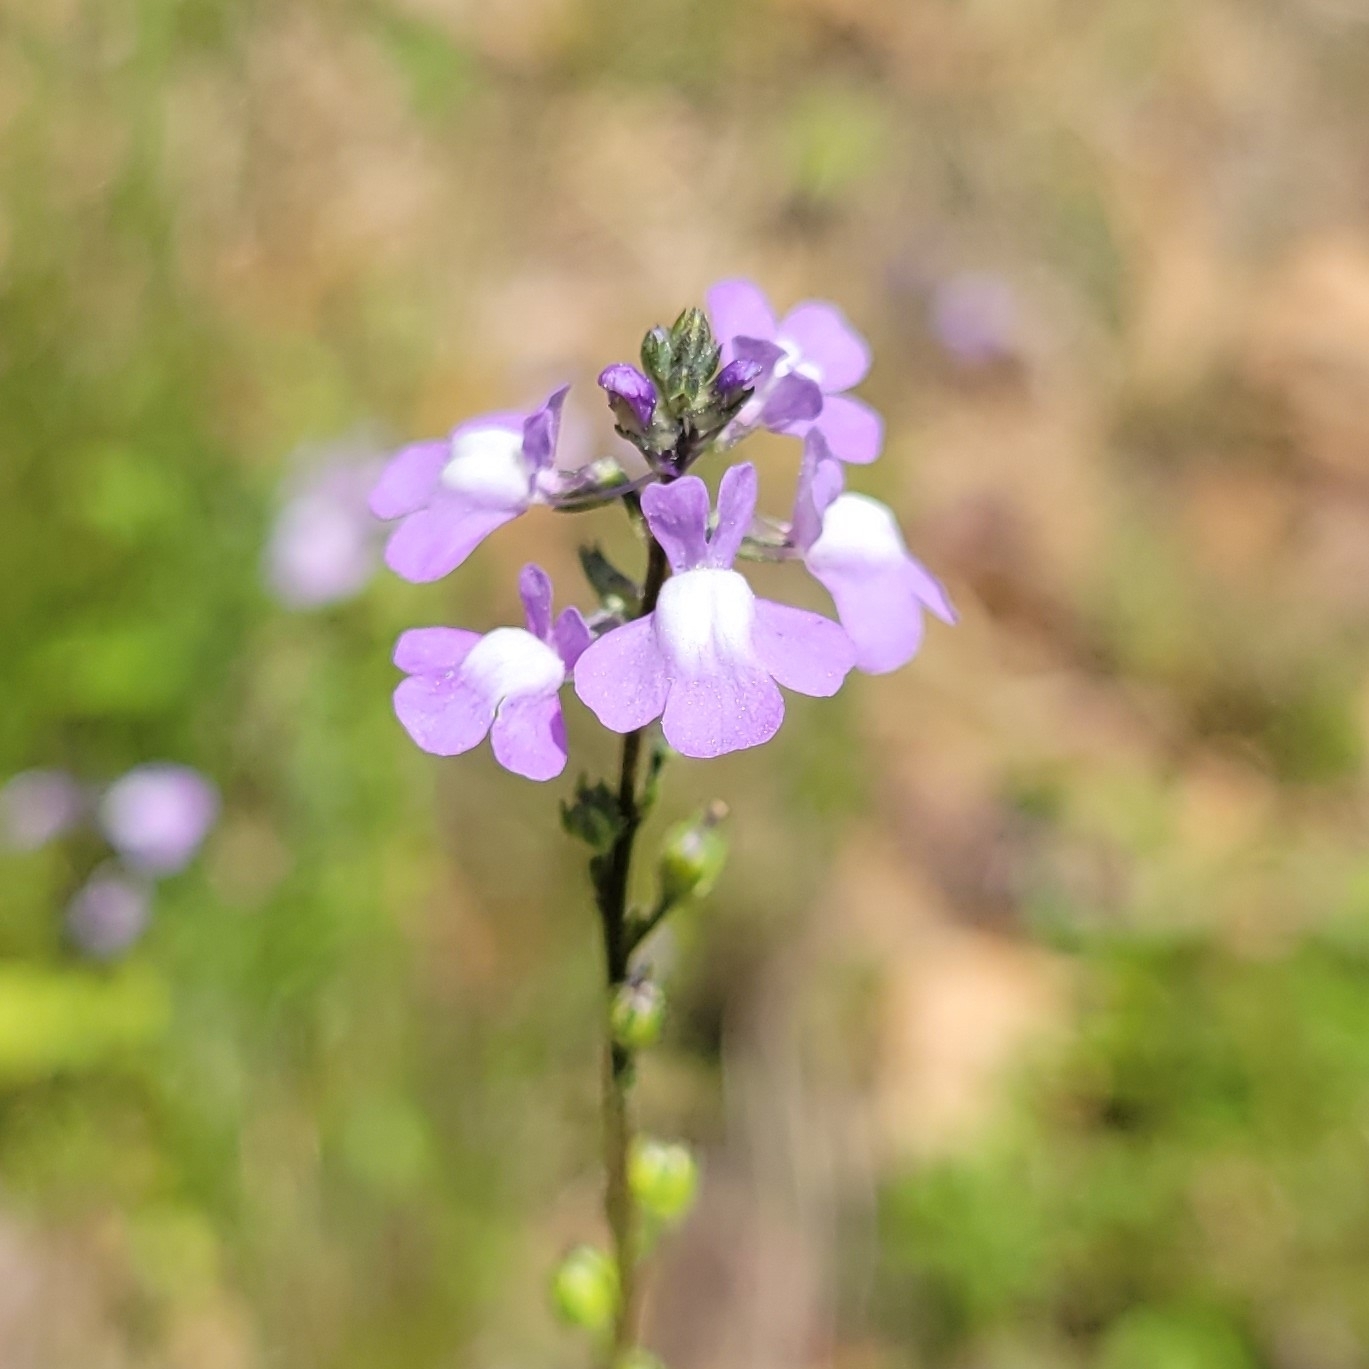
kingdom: Plantae
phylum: Tracheophyta
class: Magnoliopsida
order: Lamiales
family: Plantaginaceae
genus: Nuttallanthus
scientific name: Nuttallanthus canadensis
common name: Blue toadflax
